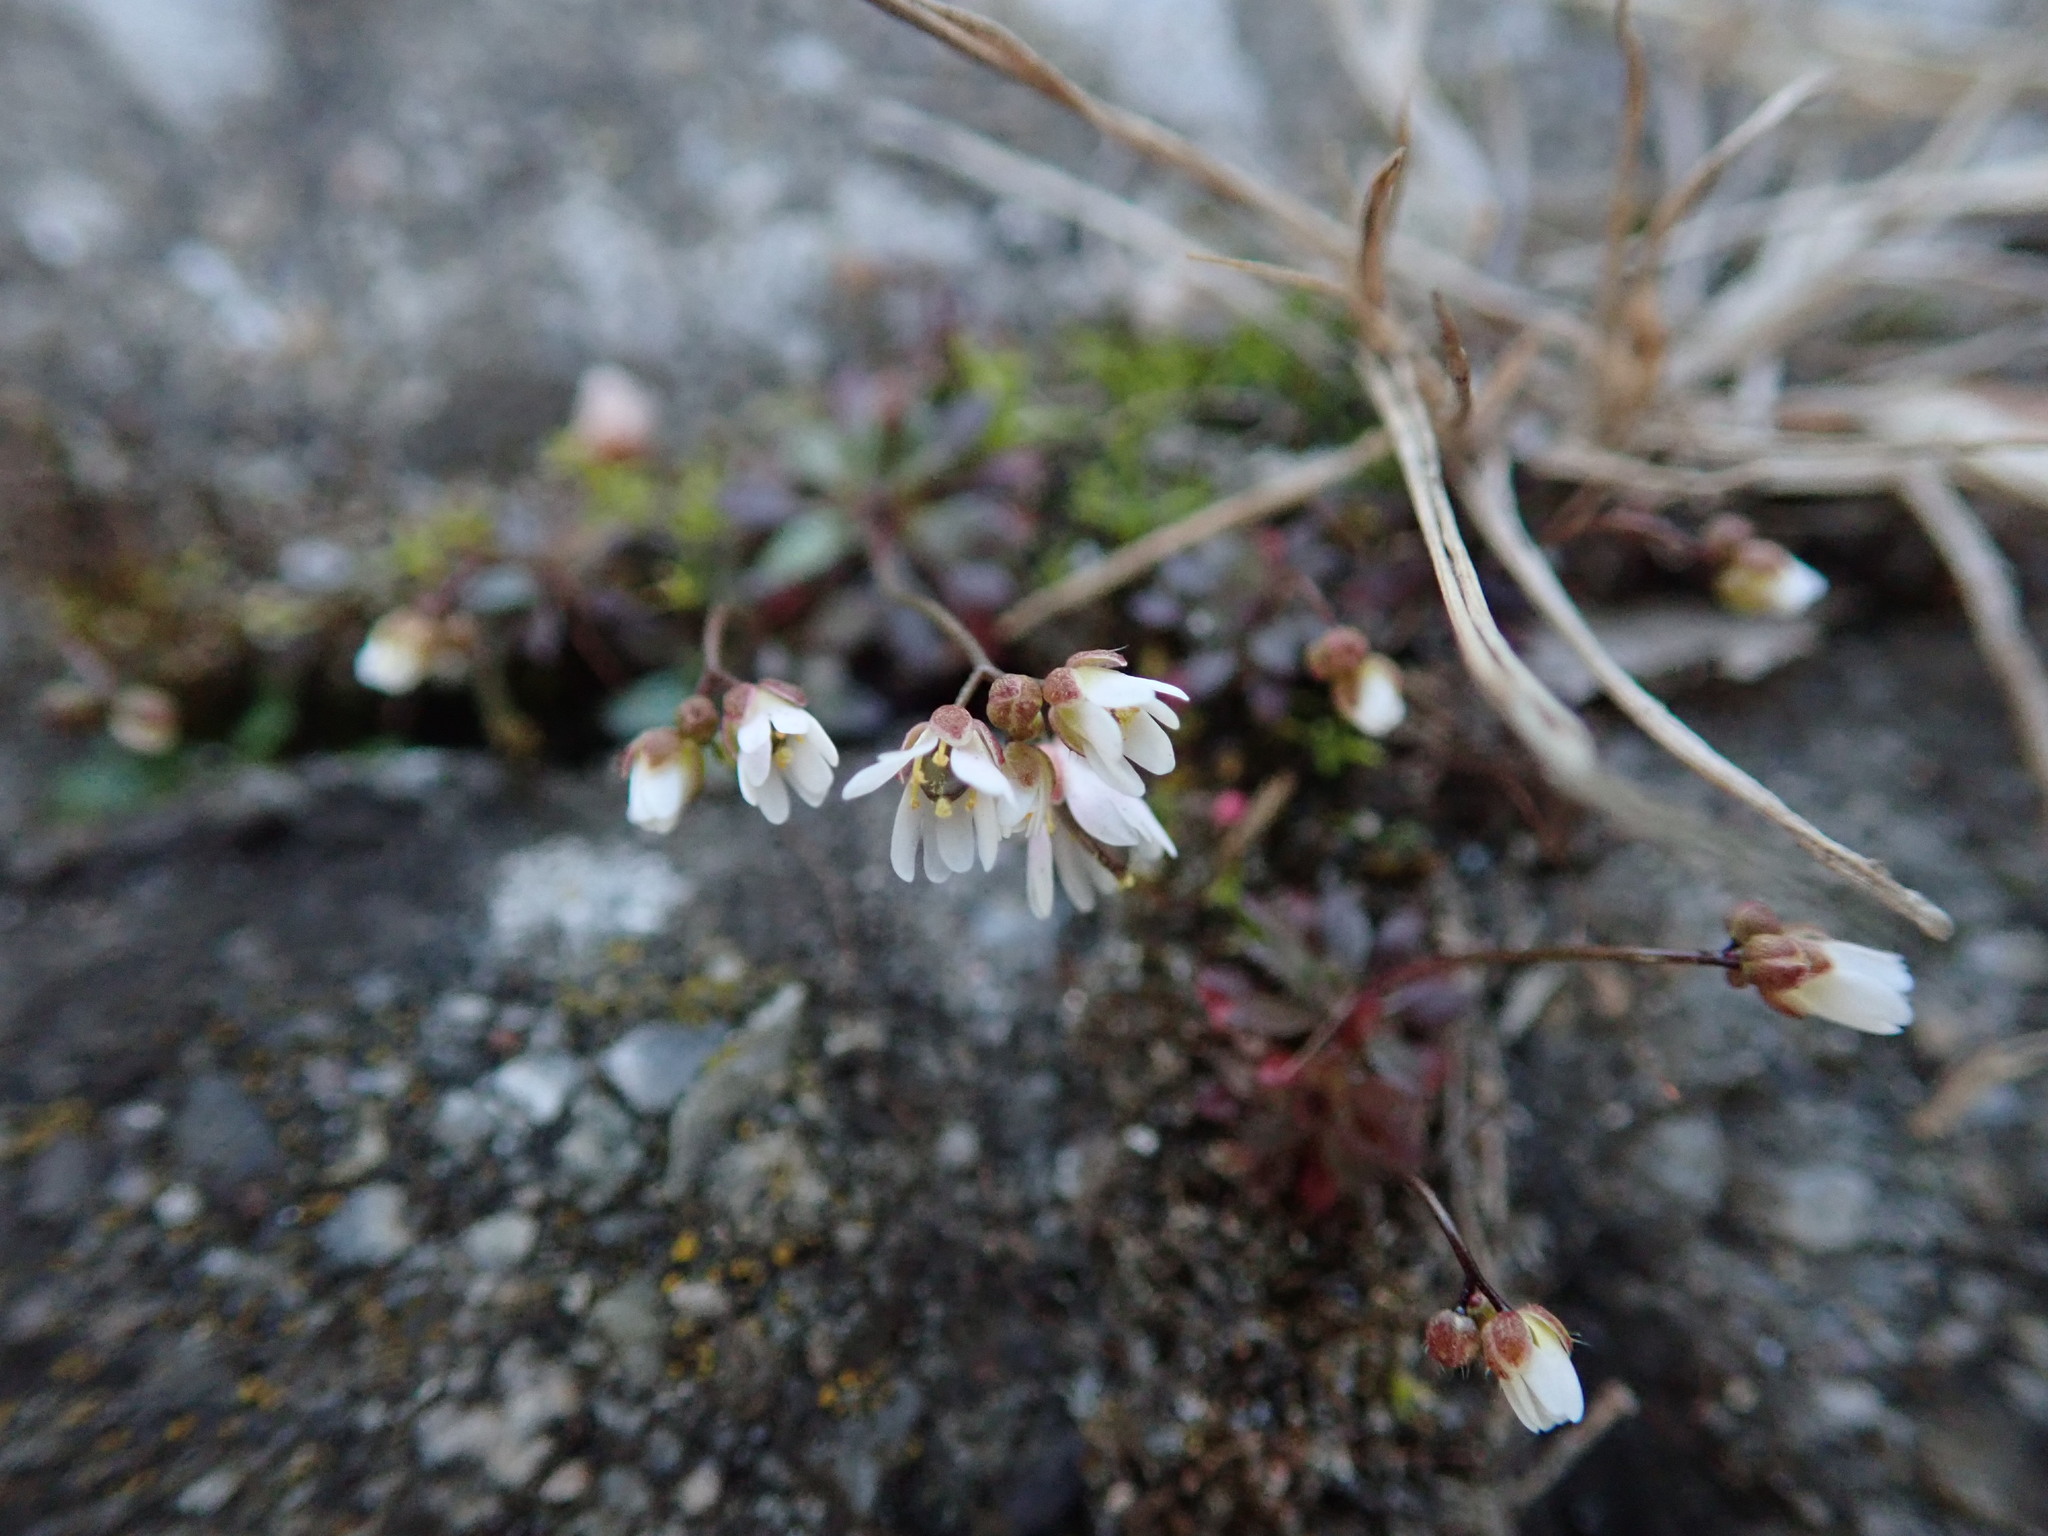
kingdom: Plantae
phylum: Tracheophyta
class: Magnoliopsida
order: Brassicales
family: Brassicaceae
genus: Draba
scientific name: Draba verna
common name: Spring draba
